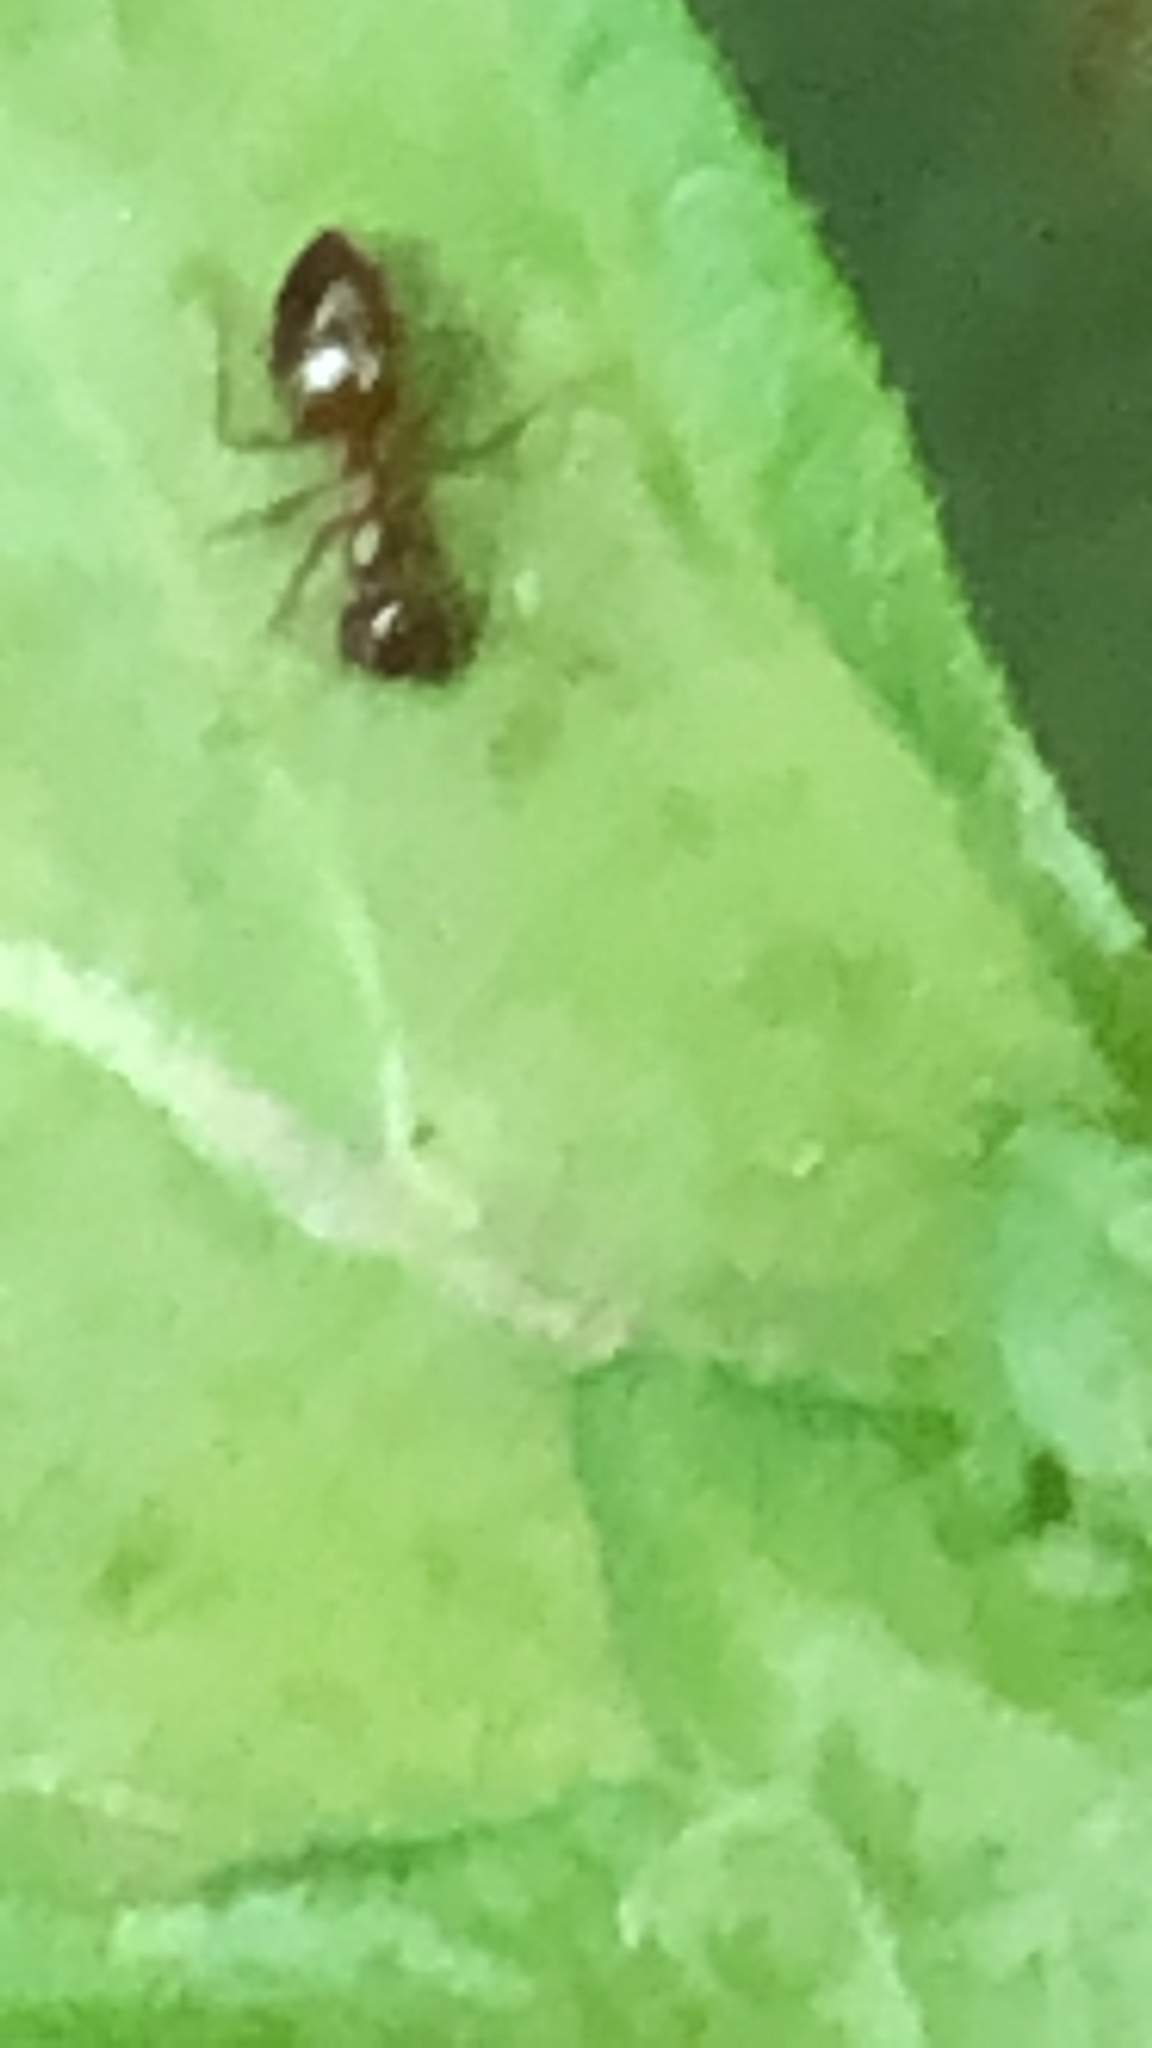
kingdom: Animalia
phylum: Arthropoda
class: Insecta
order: Hymenoptera
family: Formicidae
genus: Prenolepis
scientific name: Prenolepis imparis
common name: Small honey ant
